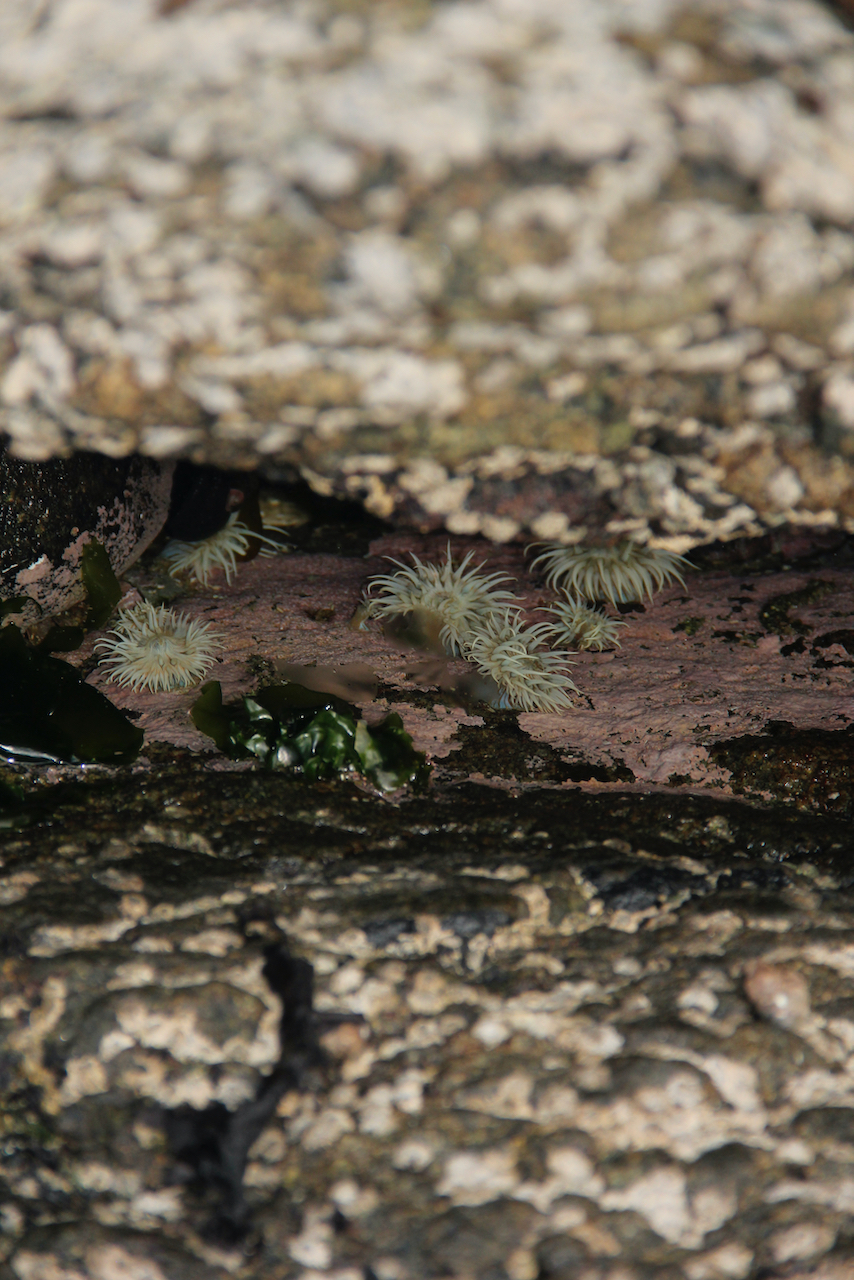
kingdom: Animalia
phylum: Cnidaria
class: Anthozoa
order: Actiniaria
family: Sagartiidae
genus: Anthothoe
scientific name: Anthothoe chilensis
